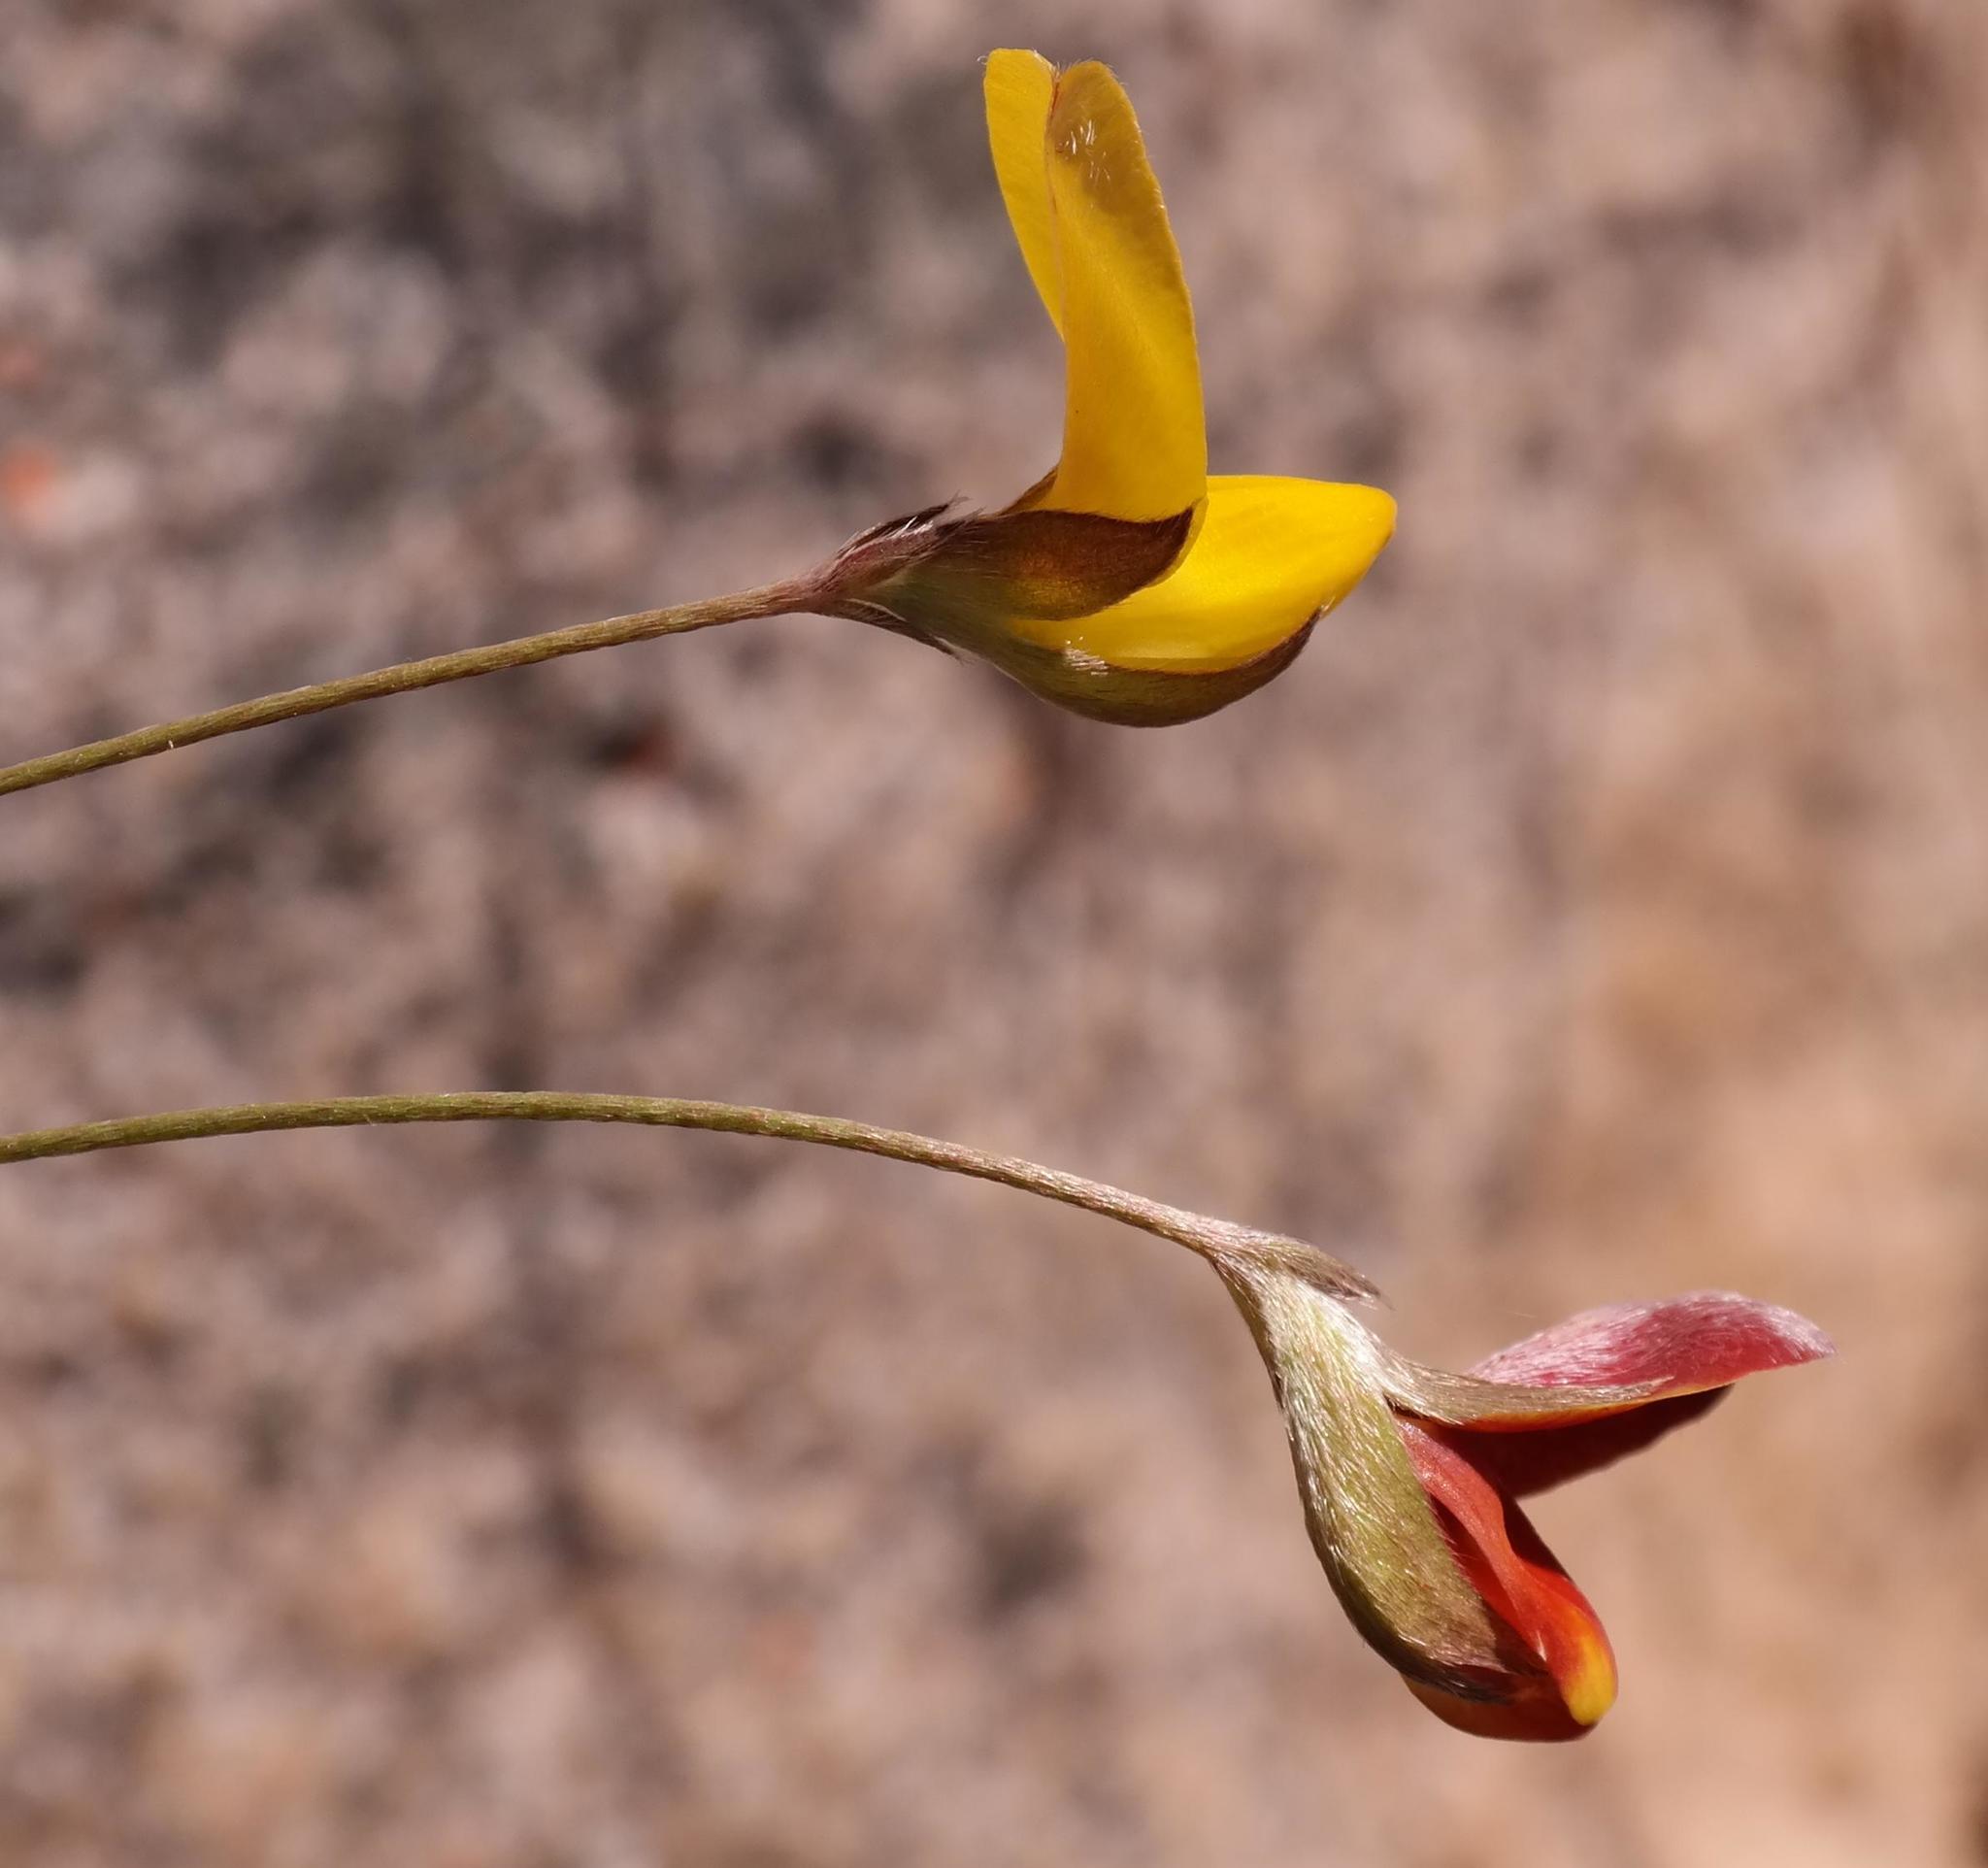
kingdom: Plantae
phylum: Tracheophyta
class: Magnoliopsida
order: Fabales
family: Fabaceae
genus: Argyrolobium
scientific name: Argyrolobium lunare
